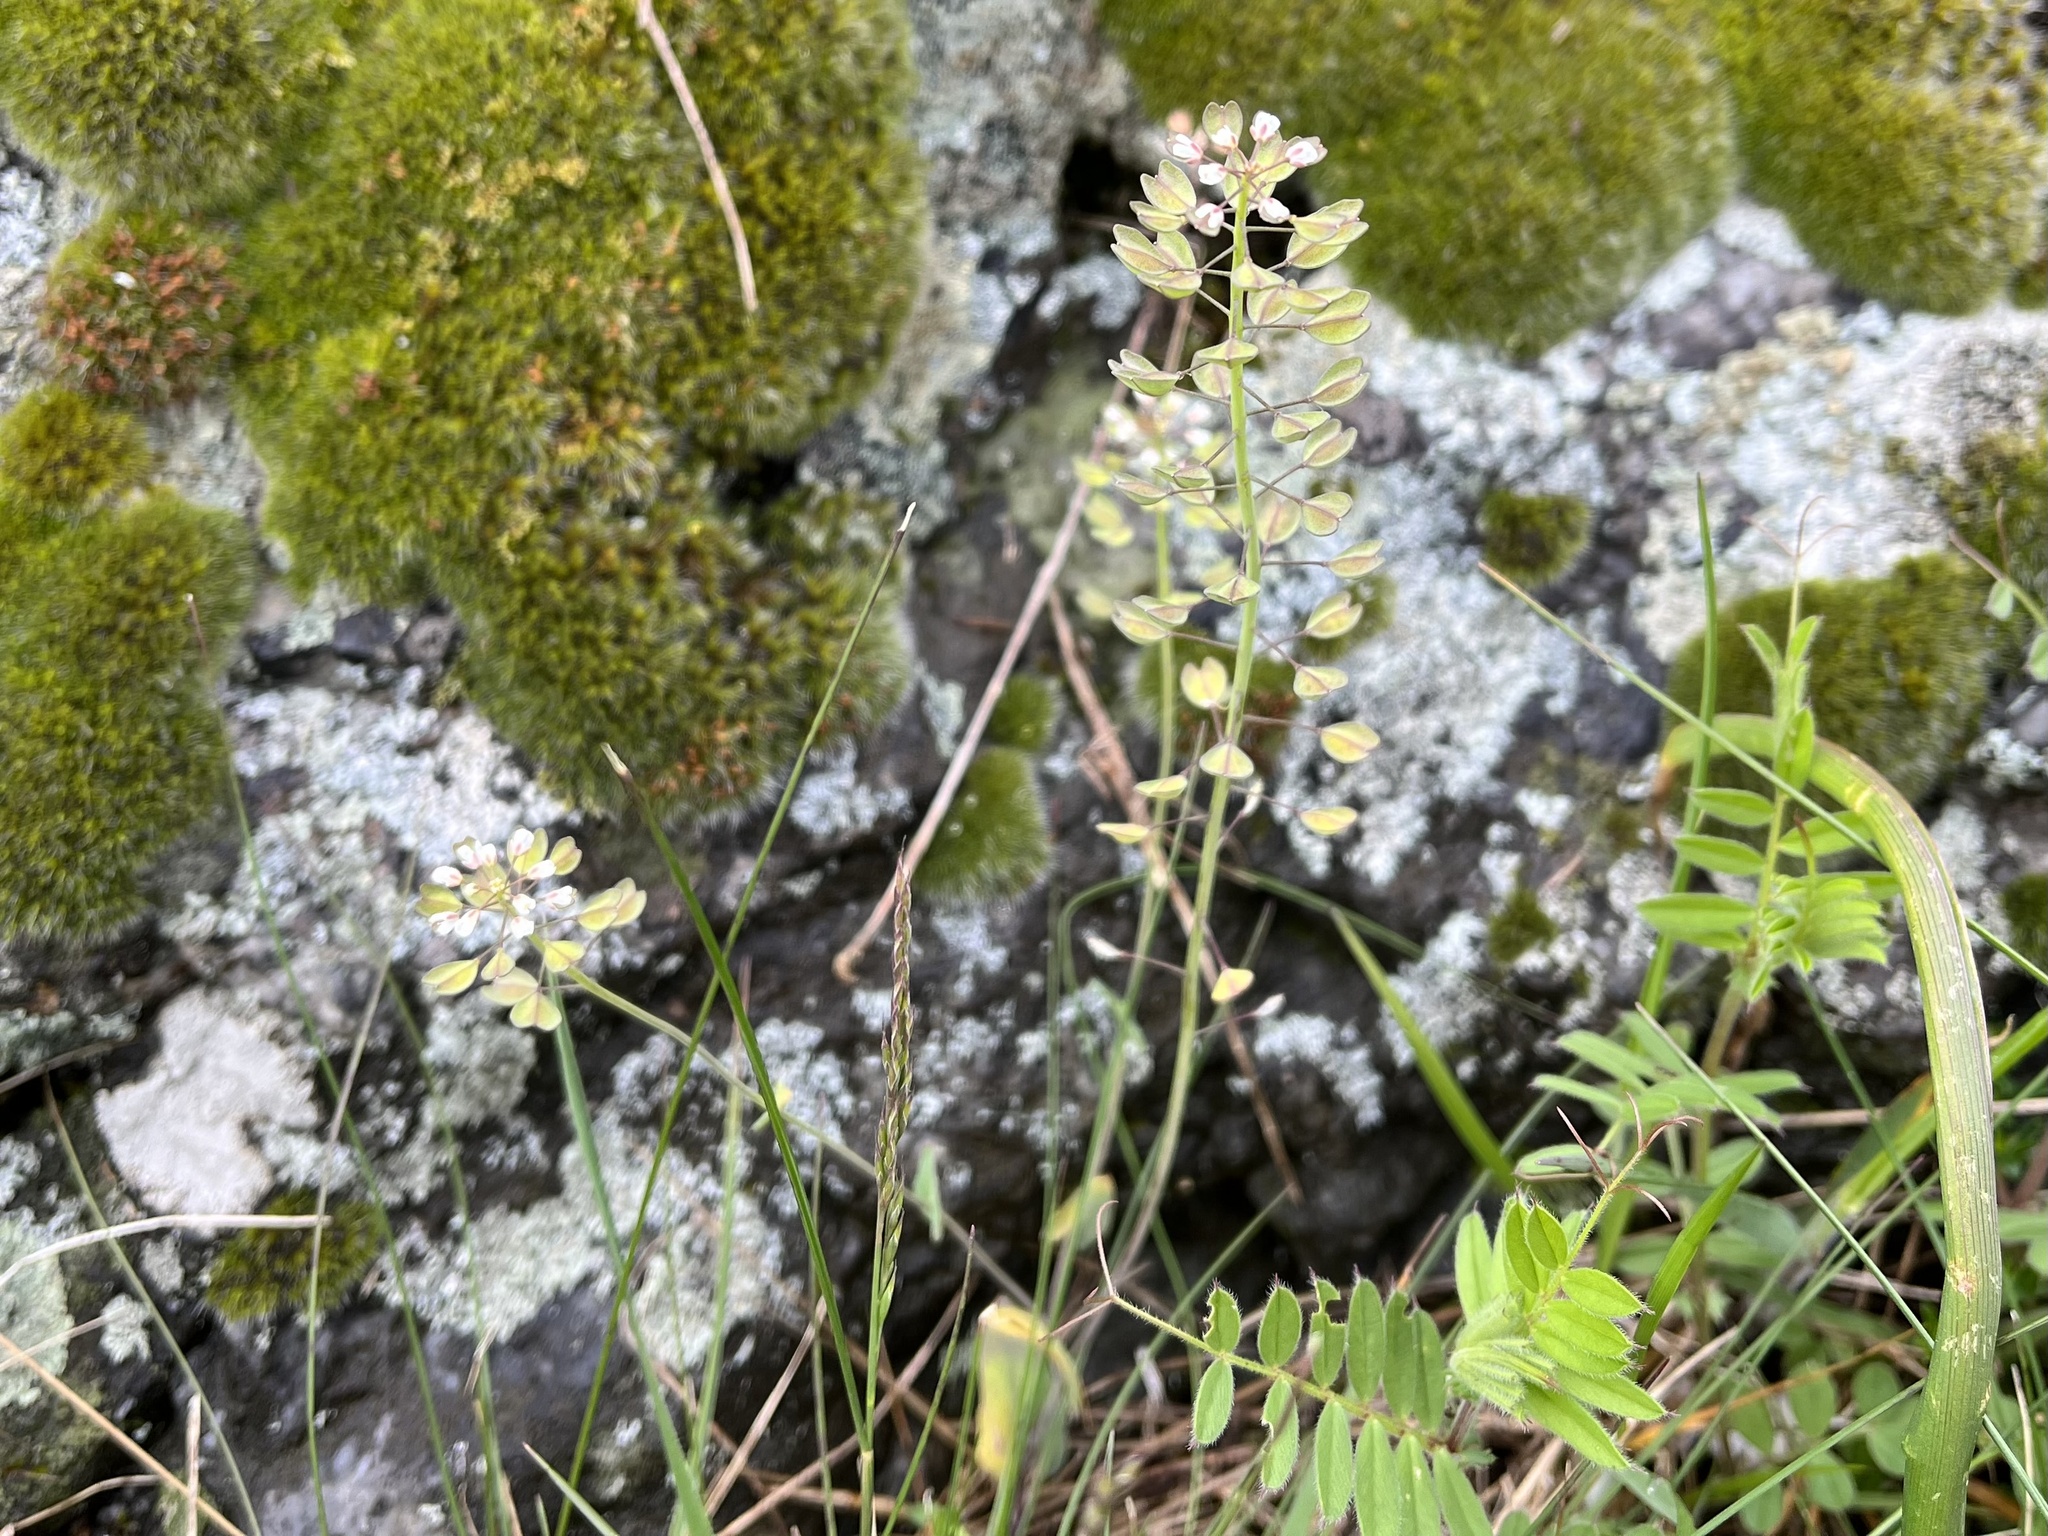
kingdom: Plantae
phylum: Tracheophyta
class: Magnoliopsida
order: Brassicales
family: Brassicaceae
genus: Noccaea
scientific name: Noccaea perfoliata
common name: Perfoliate pennycress
